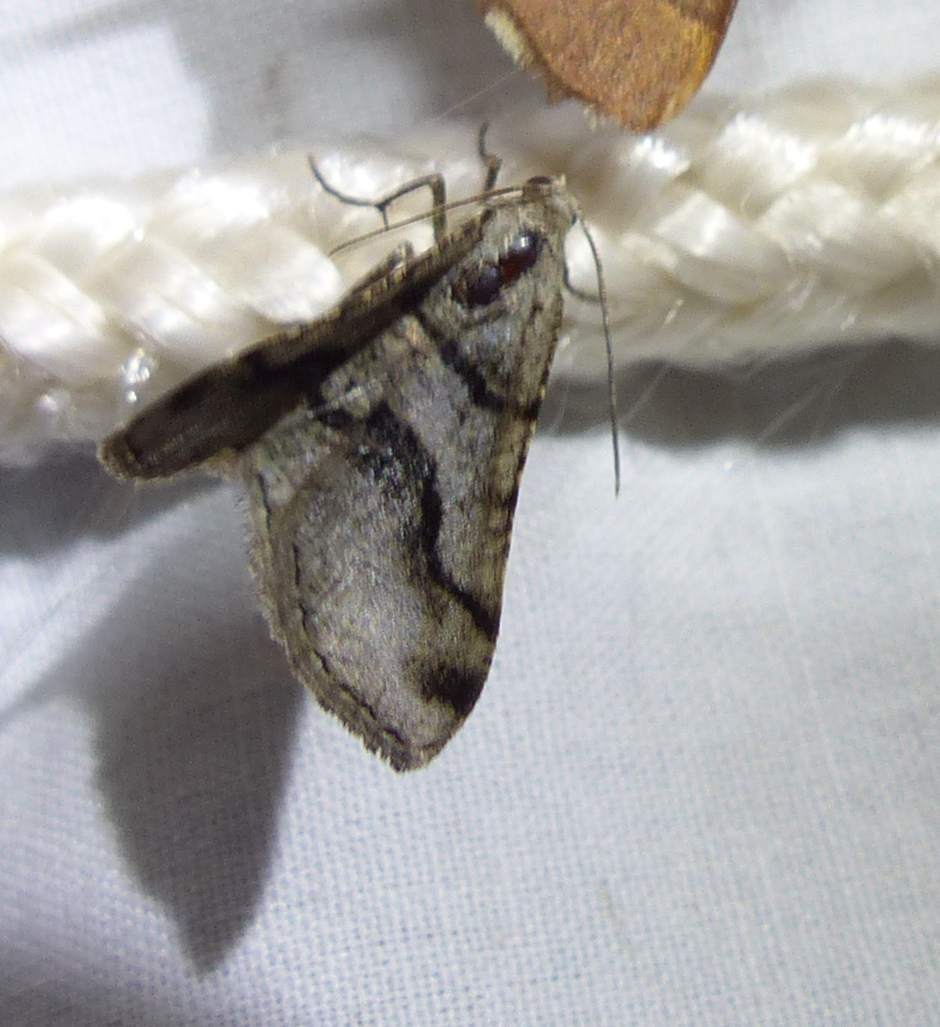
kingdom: Animalia
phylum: Arthropoda
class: Insecta
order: Lepidoptera
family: Geometridae
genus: Digrammia
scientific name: Digrammia continuata
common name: Curve-lined angle
